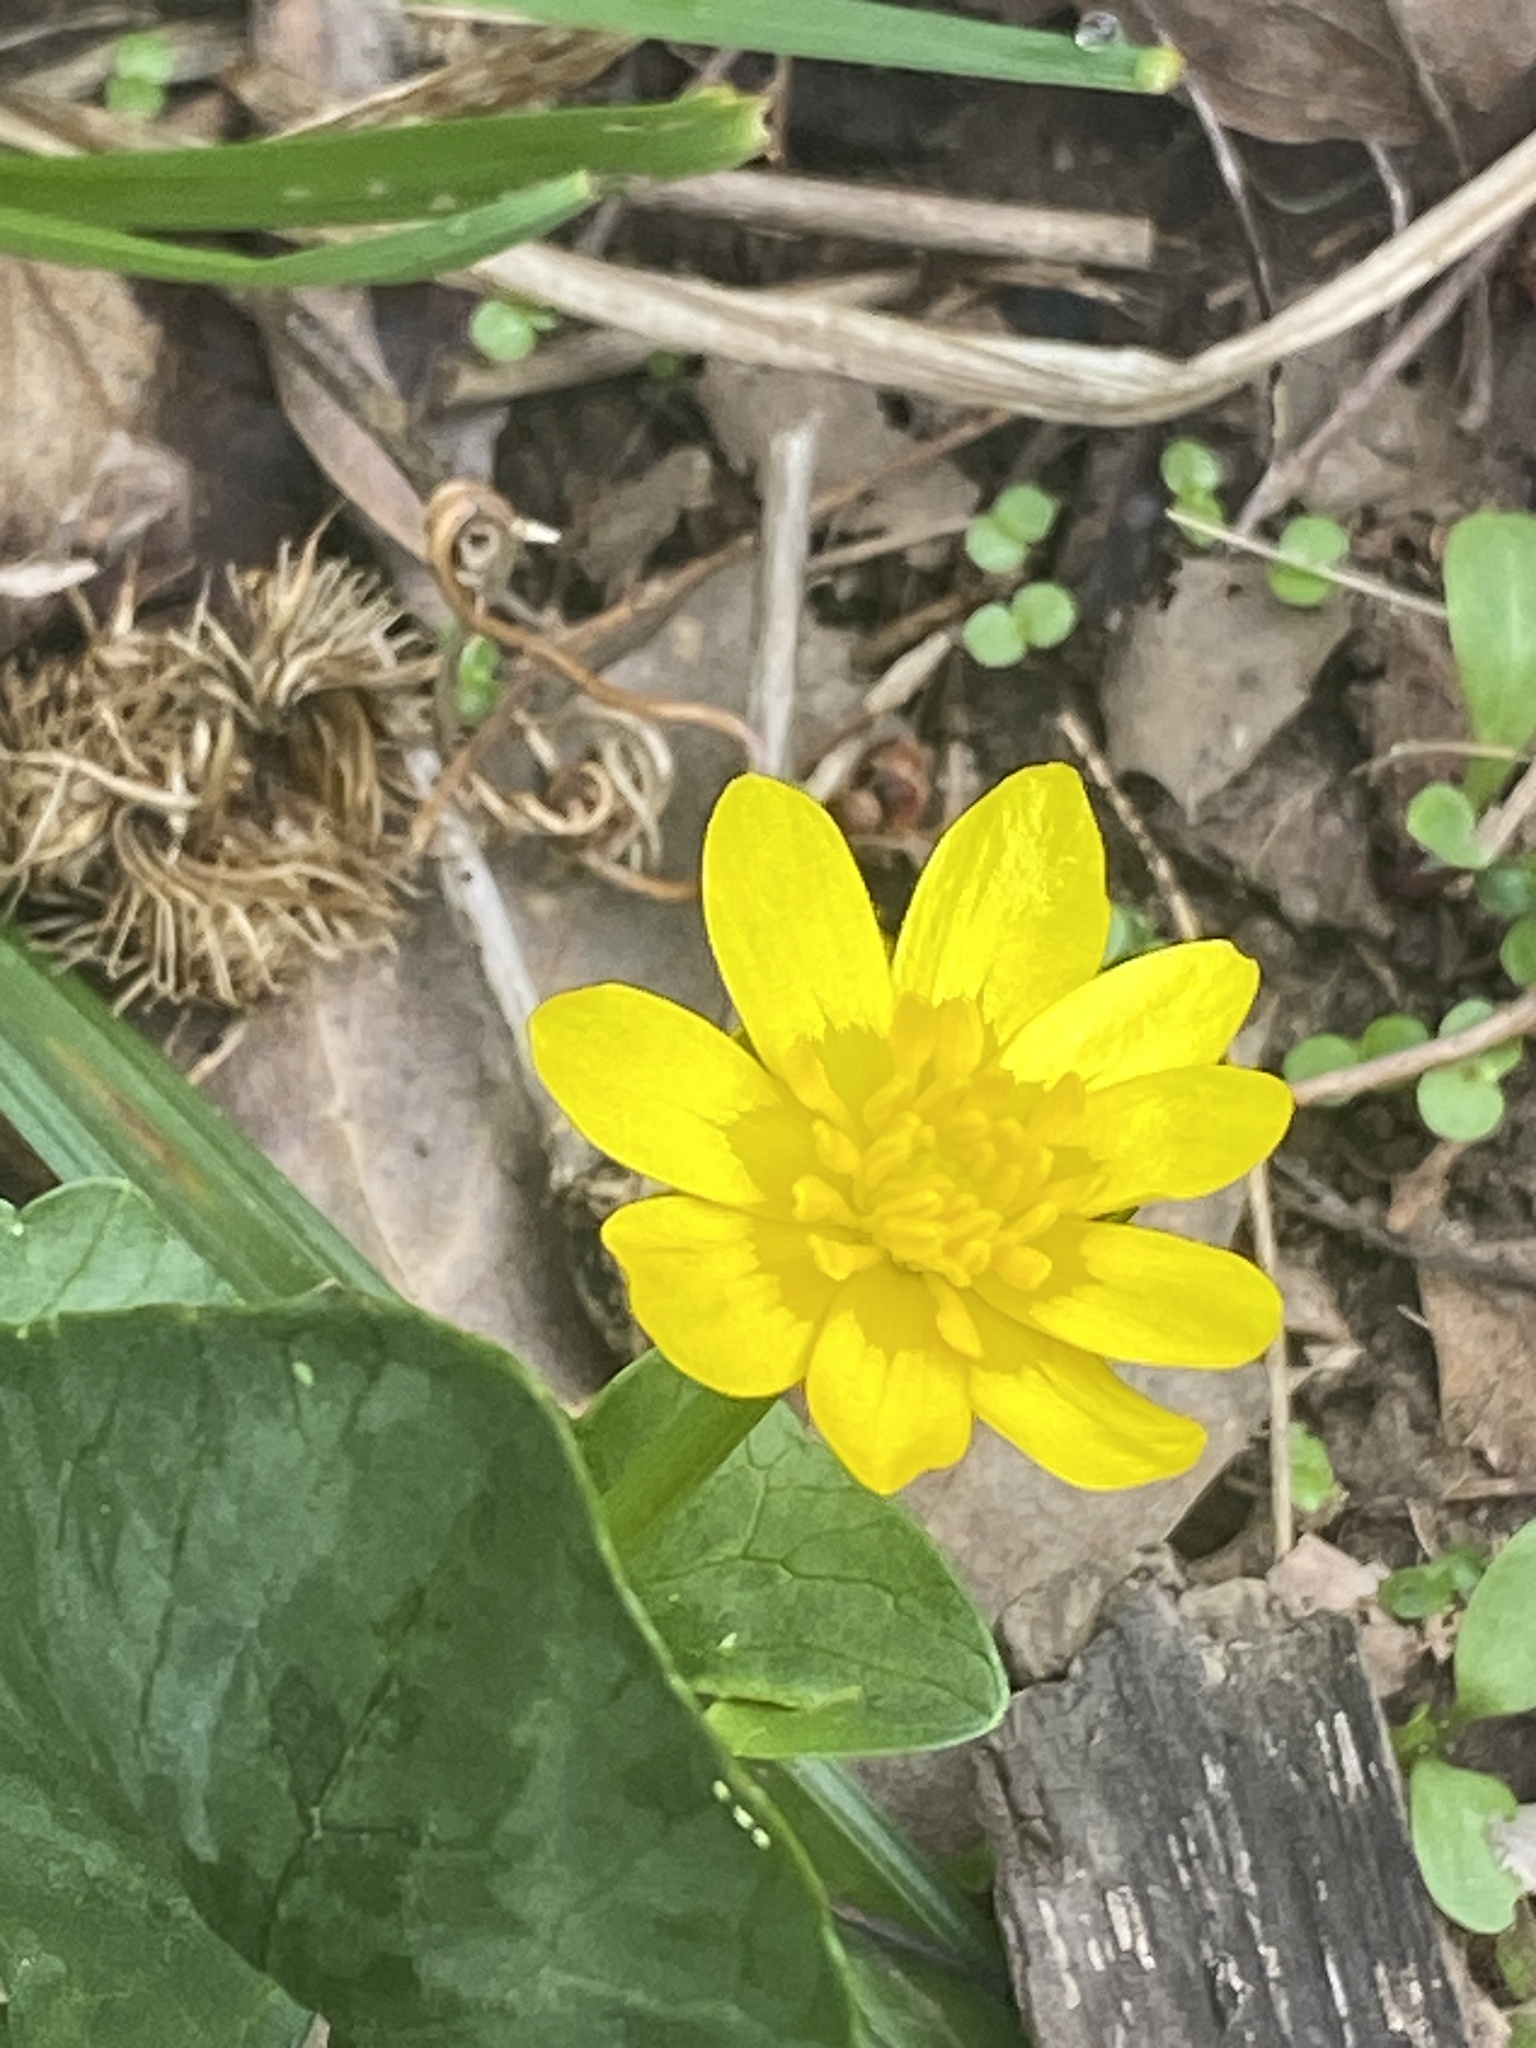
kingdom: Plantae
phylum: Tracheophyta
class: Magnoliopsida
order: Ranunculales
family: Ranunculaceae
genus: Ficaria
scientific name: Ficaria verna
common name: Lesser celandine
